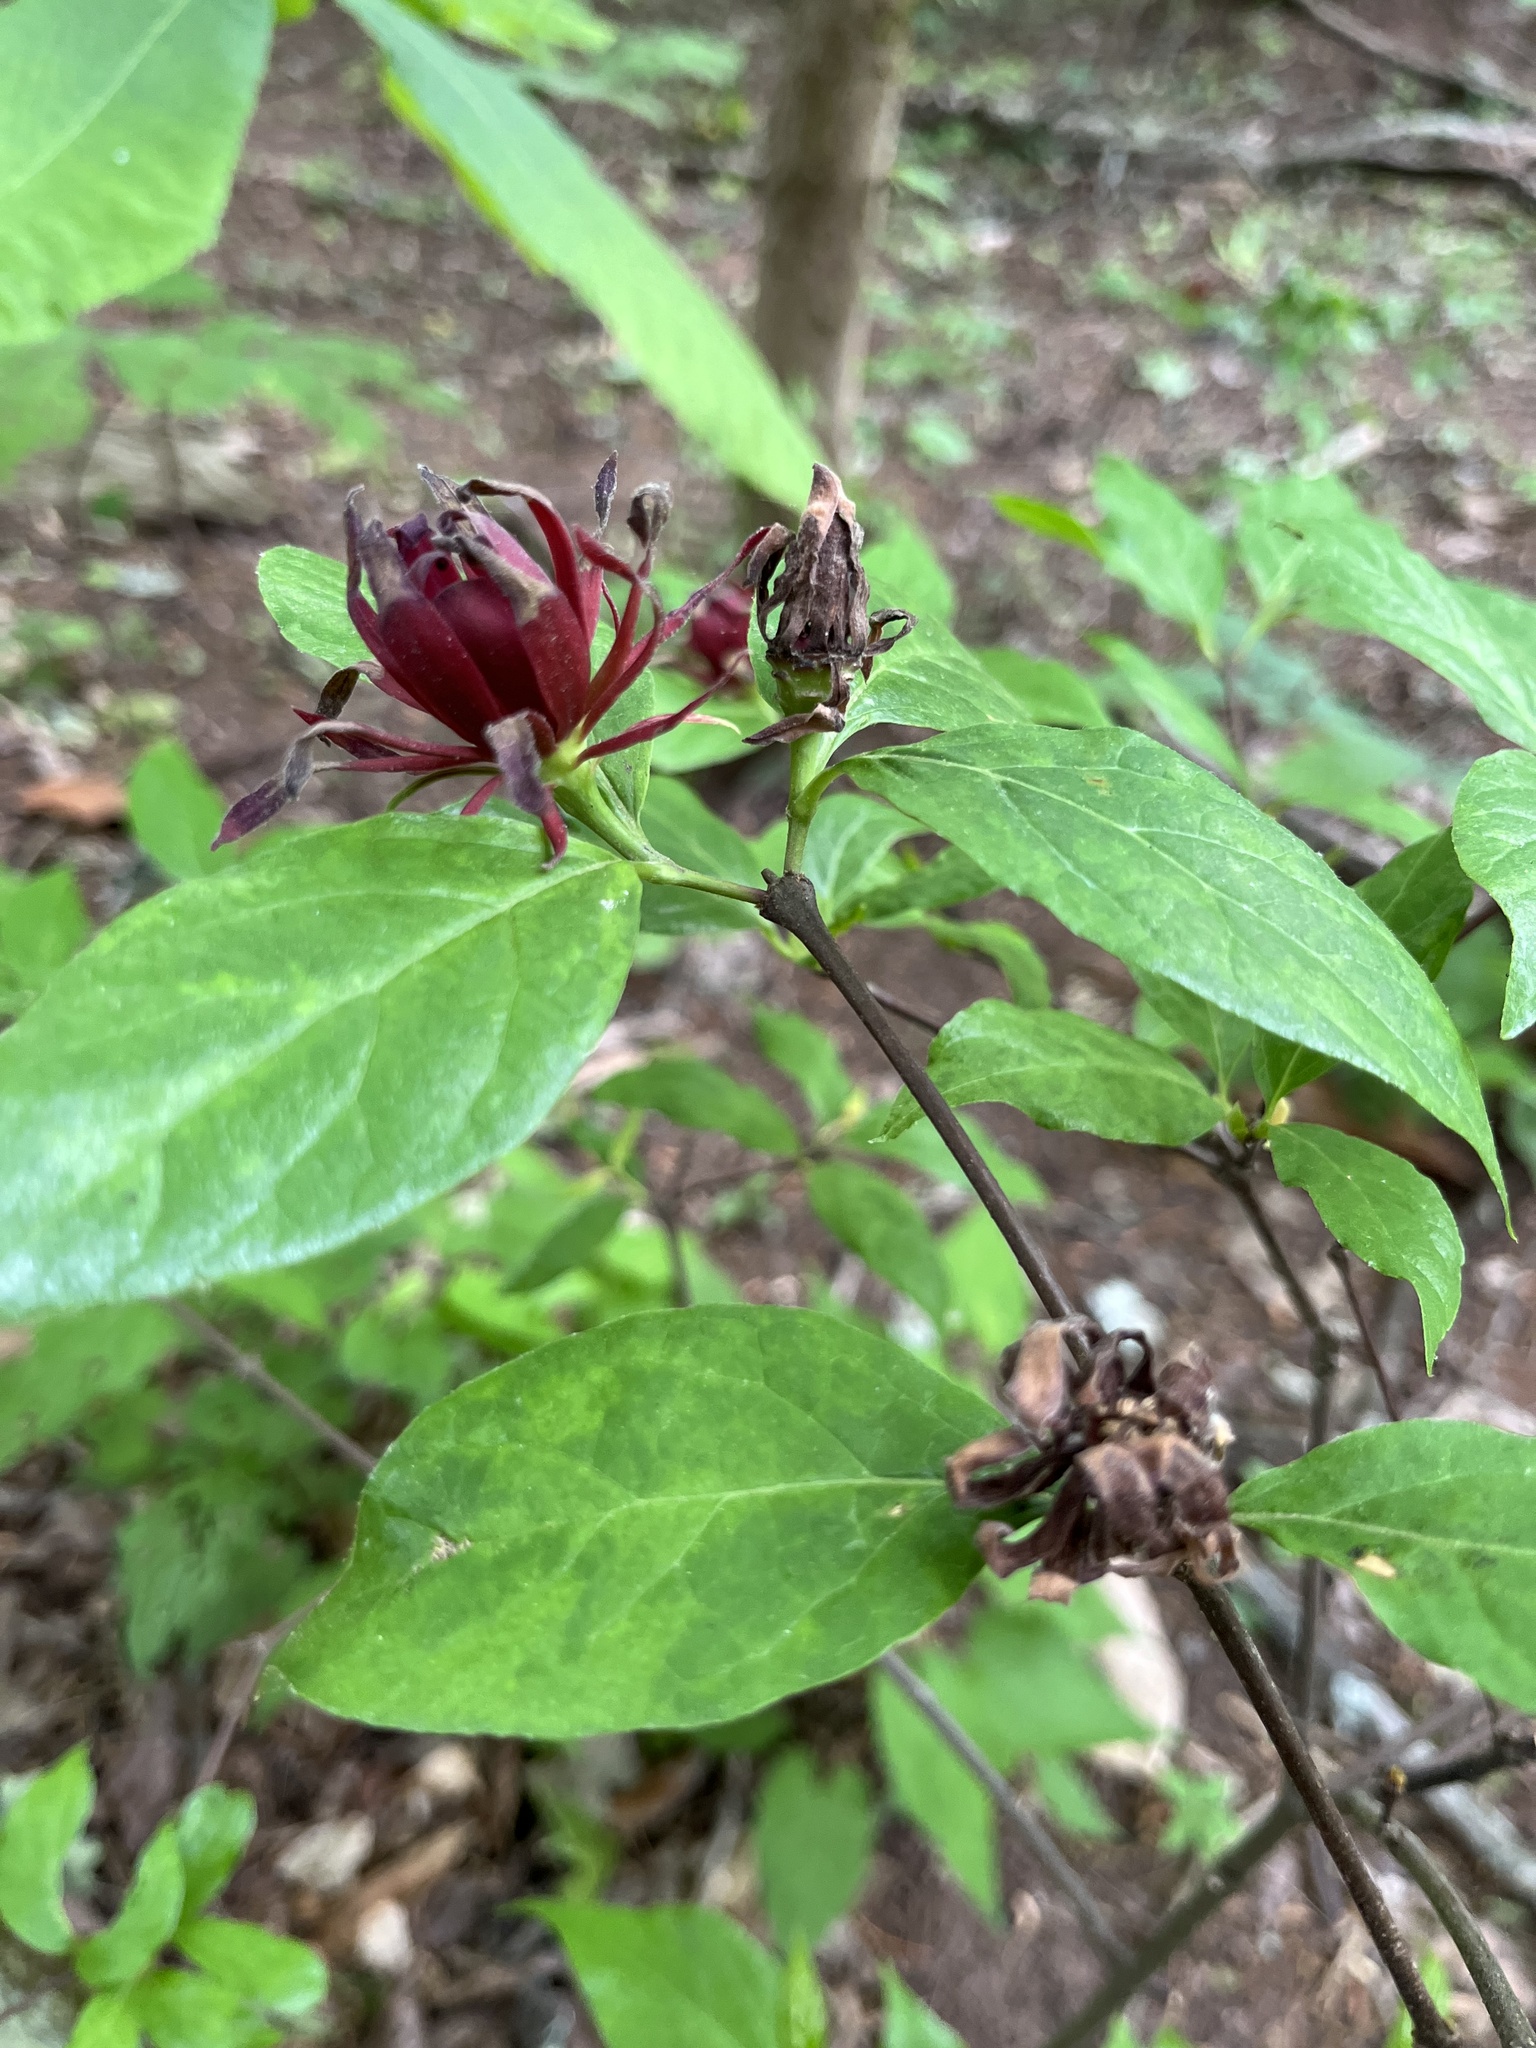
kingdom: Plantae
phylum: Tracheophyta
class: Magnoliopsida
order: Laurales
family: Calycanthaceae
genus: Calycanthus
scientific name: Calycanthus floridus
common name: Carolina-allspice
